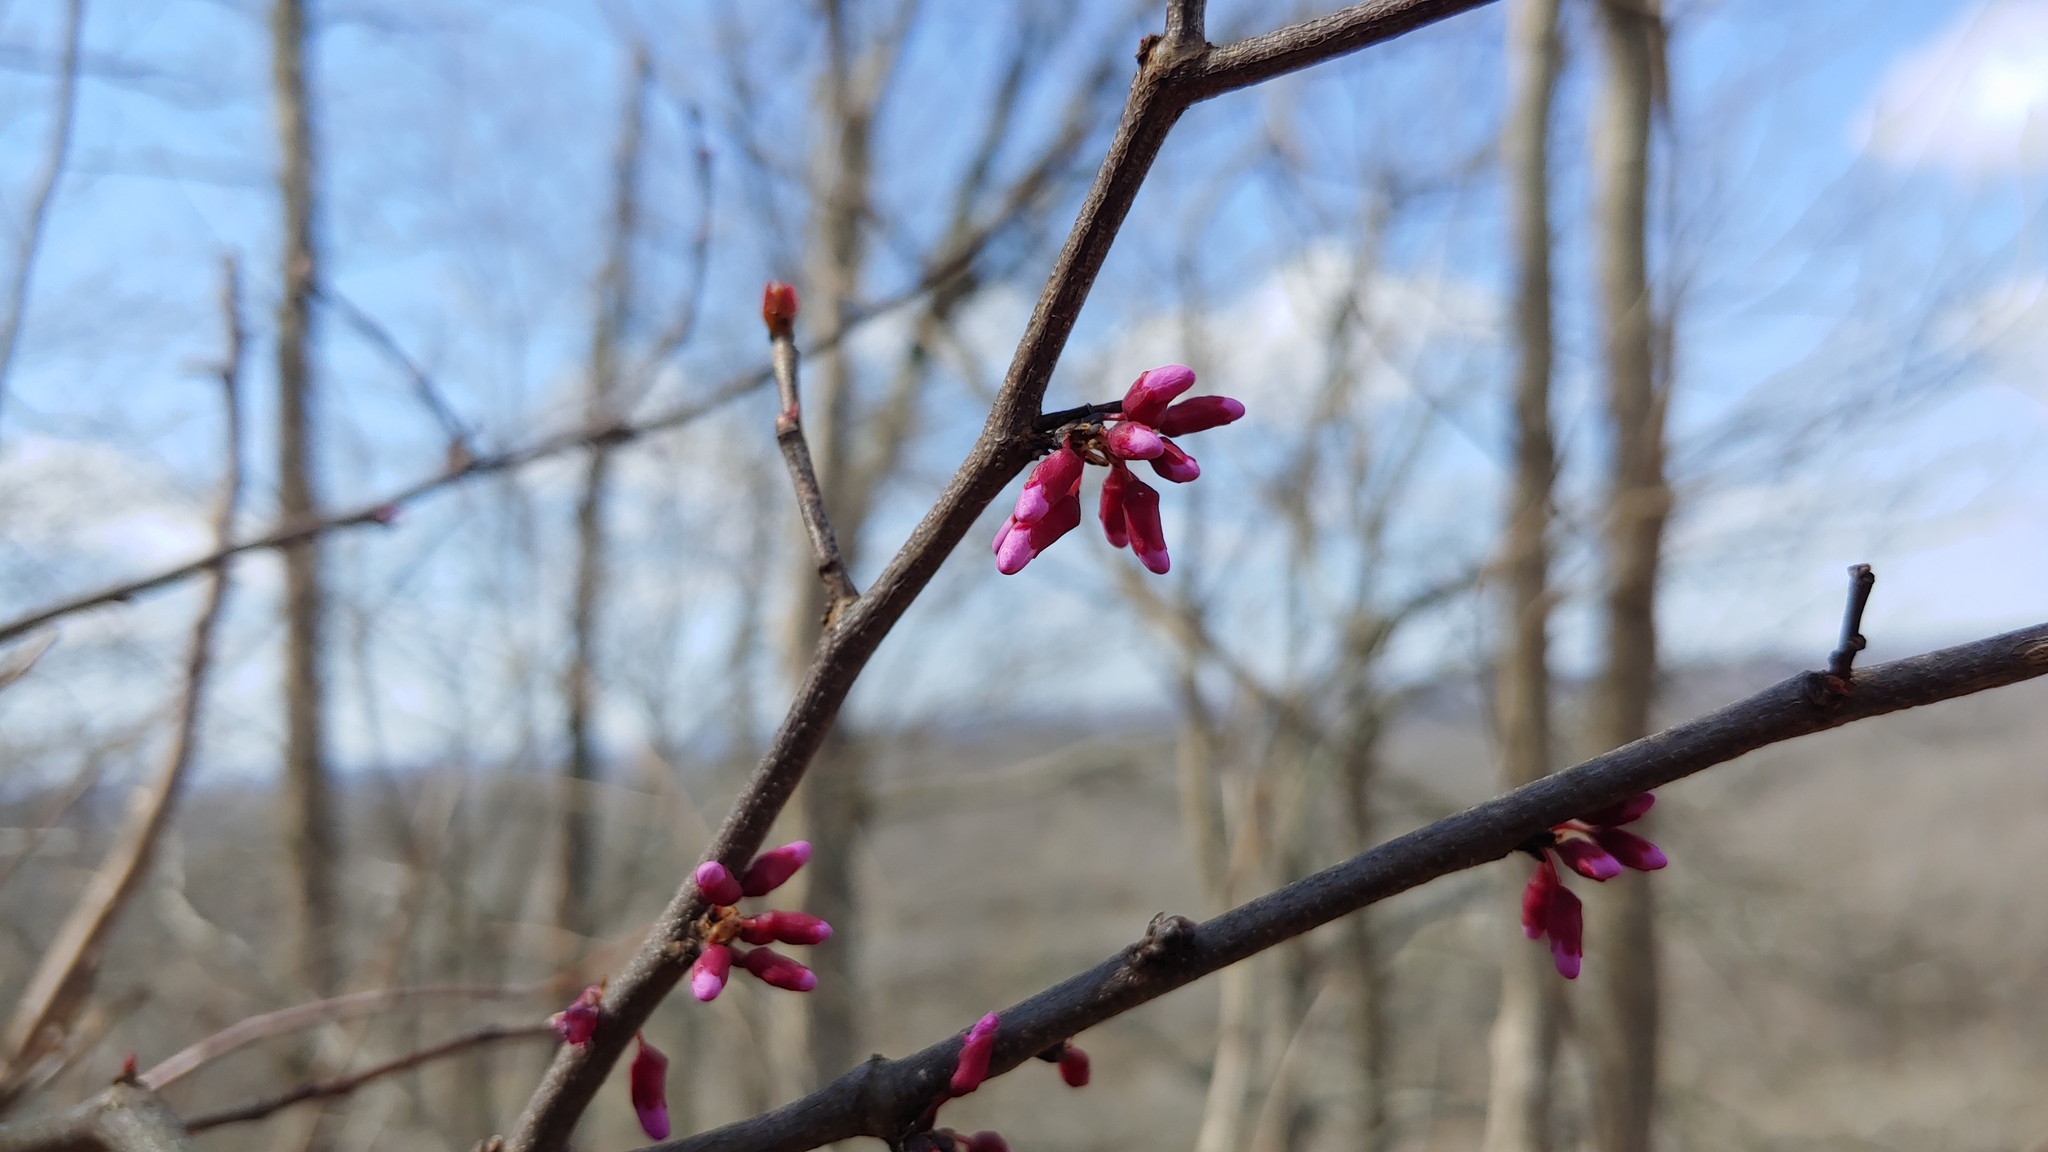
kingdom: Plantae
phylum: Tracheophyta
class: Magnoliopsida
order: Fabales
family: Fabaceae
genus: Cercis
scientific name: Cercis canadensis
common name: Eastern redbud
